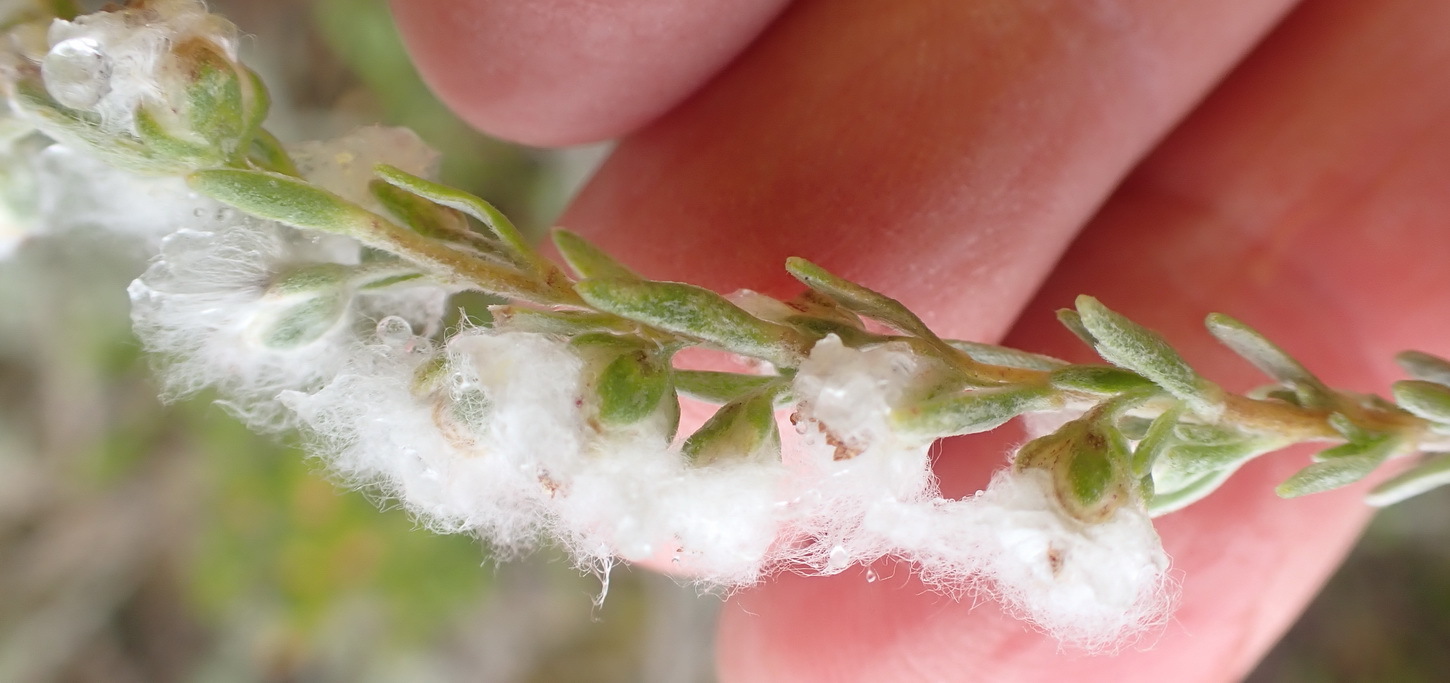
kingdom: Plantae
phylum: Tracheophyta
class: Magnoliopsida
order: Asterales
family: Asteraceae
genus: Eriocephalus
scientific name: Eriocephalus racemosus
